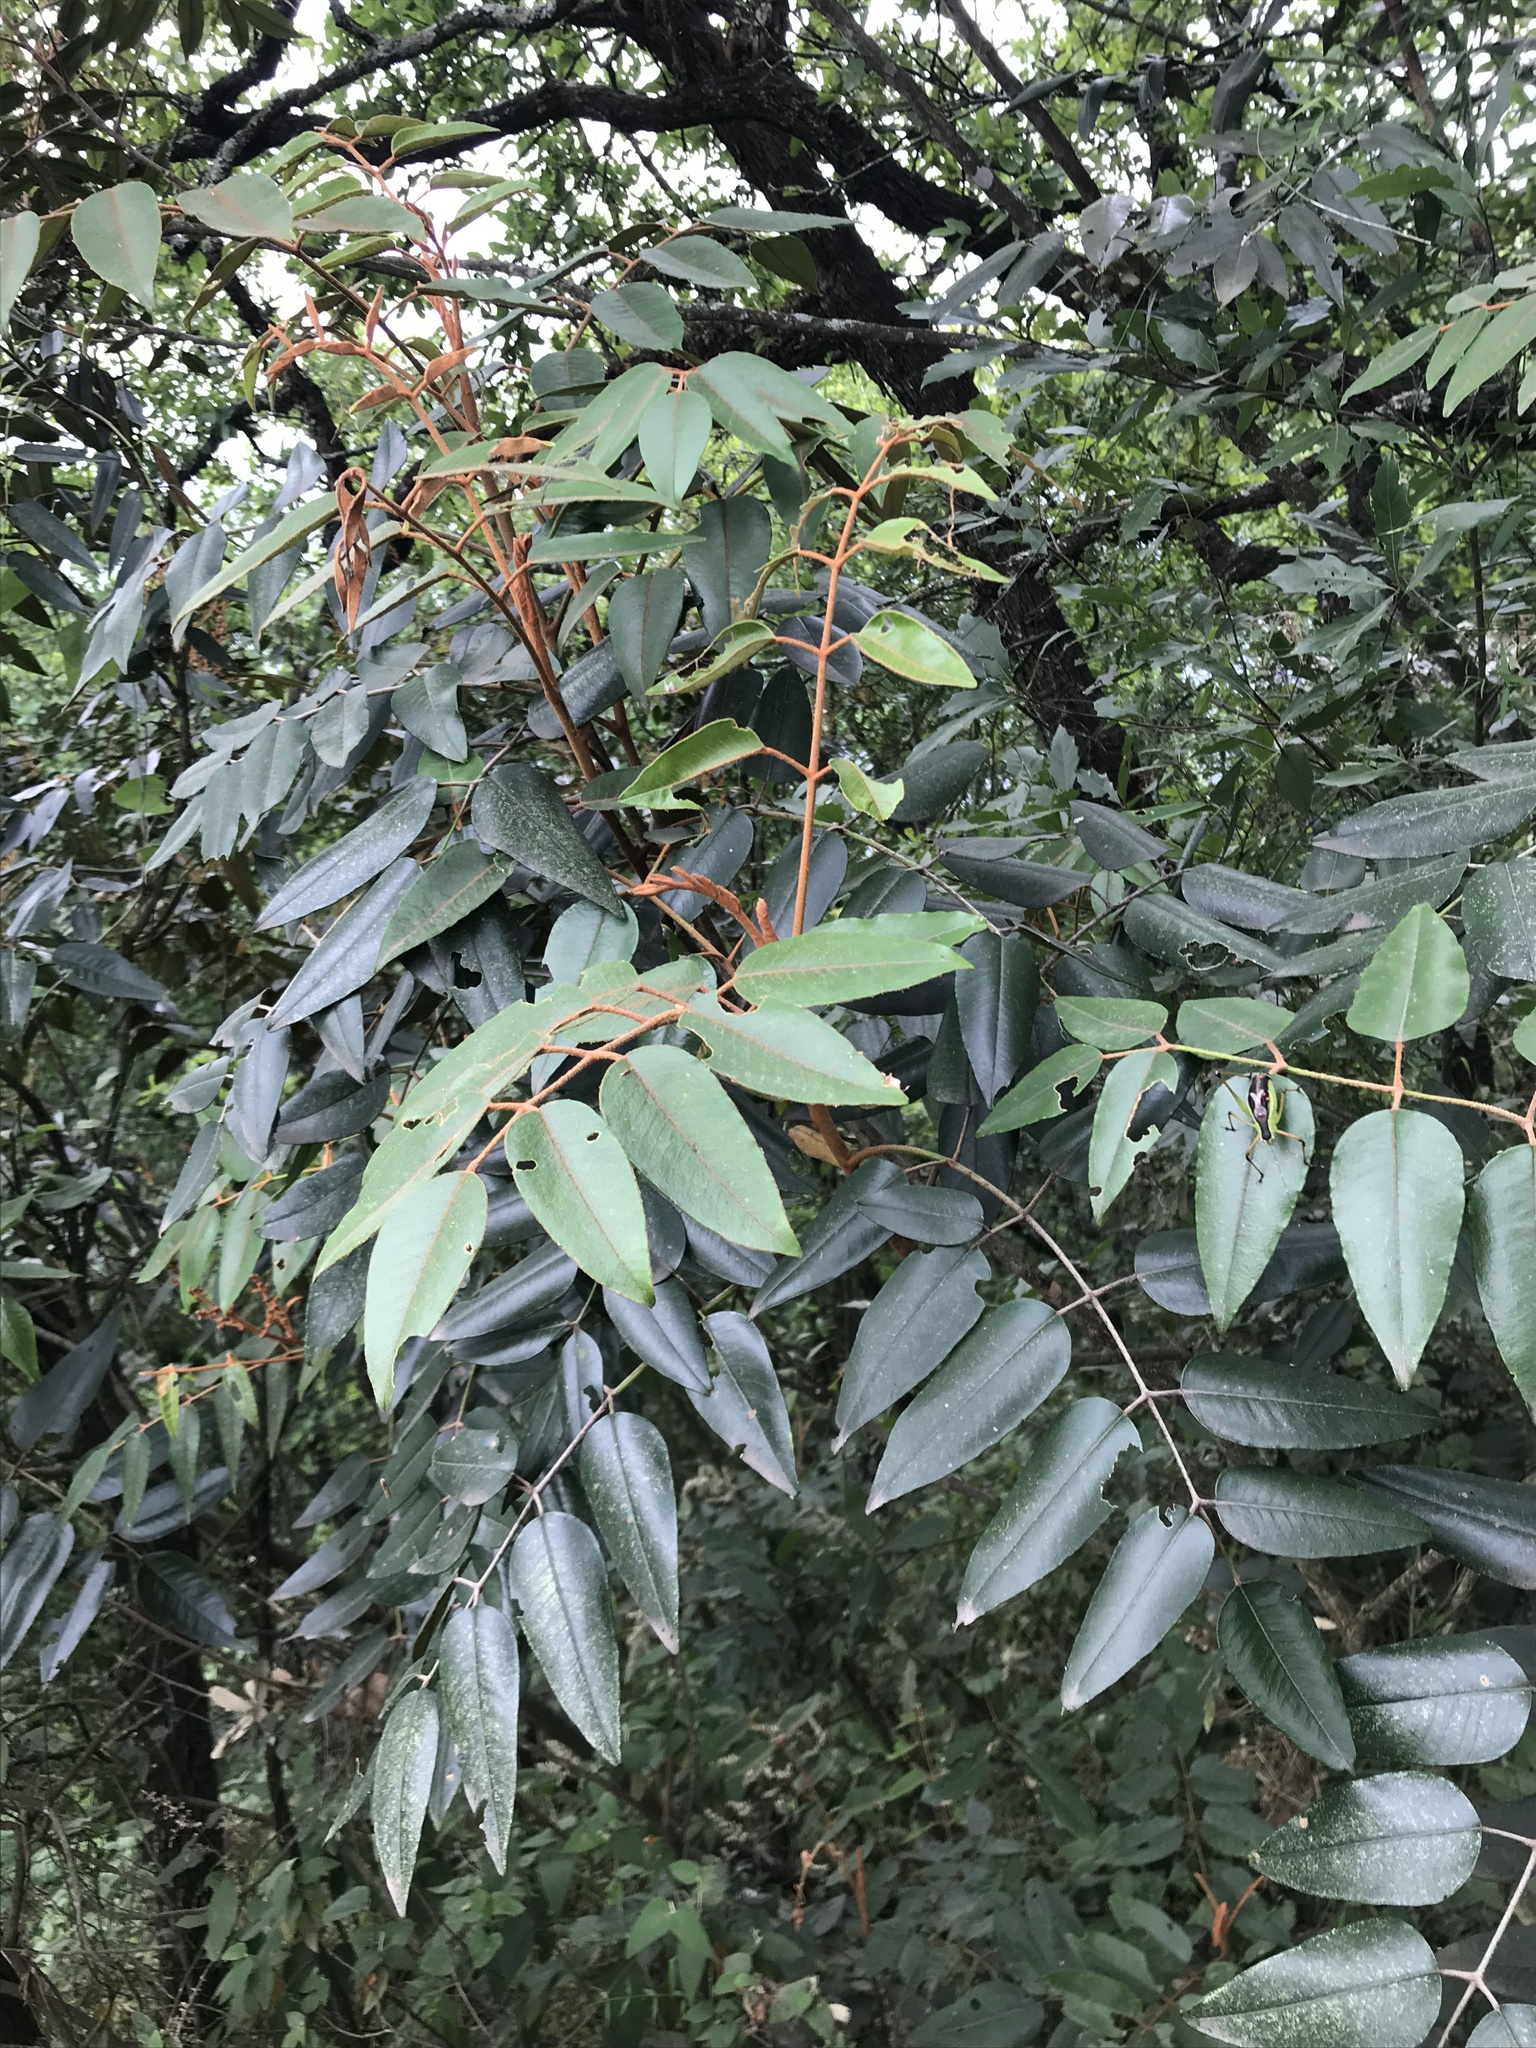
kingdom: Plantae
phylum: Tracheophyta
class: Magnoliopsida
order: Sapindales
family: Rutaceae
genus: Decatropis
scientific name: Decatropis bicolor
